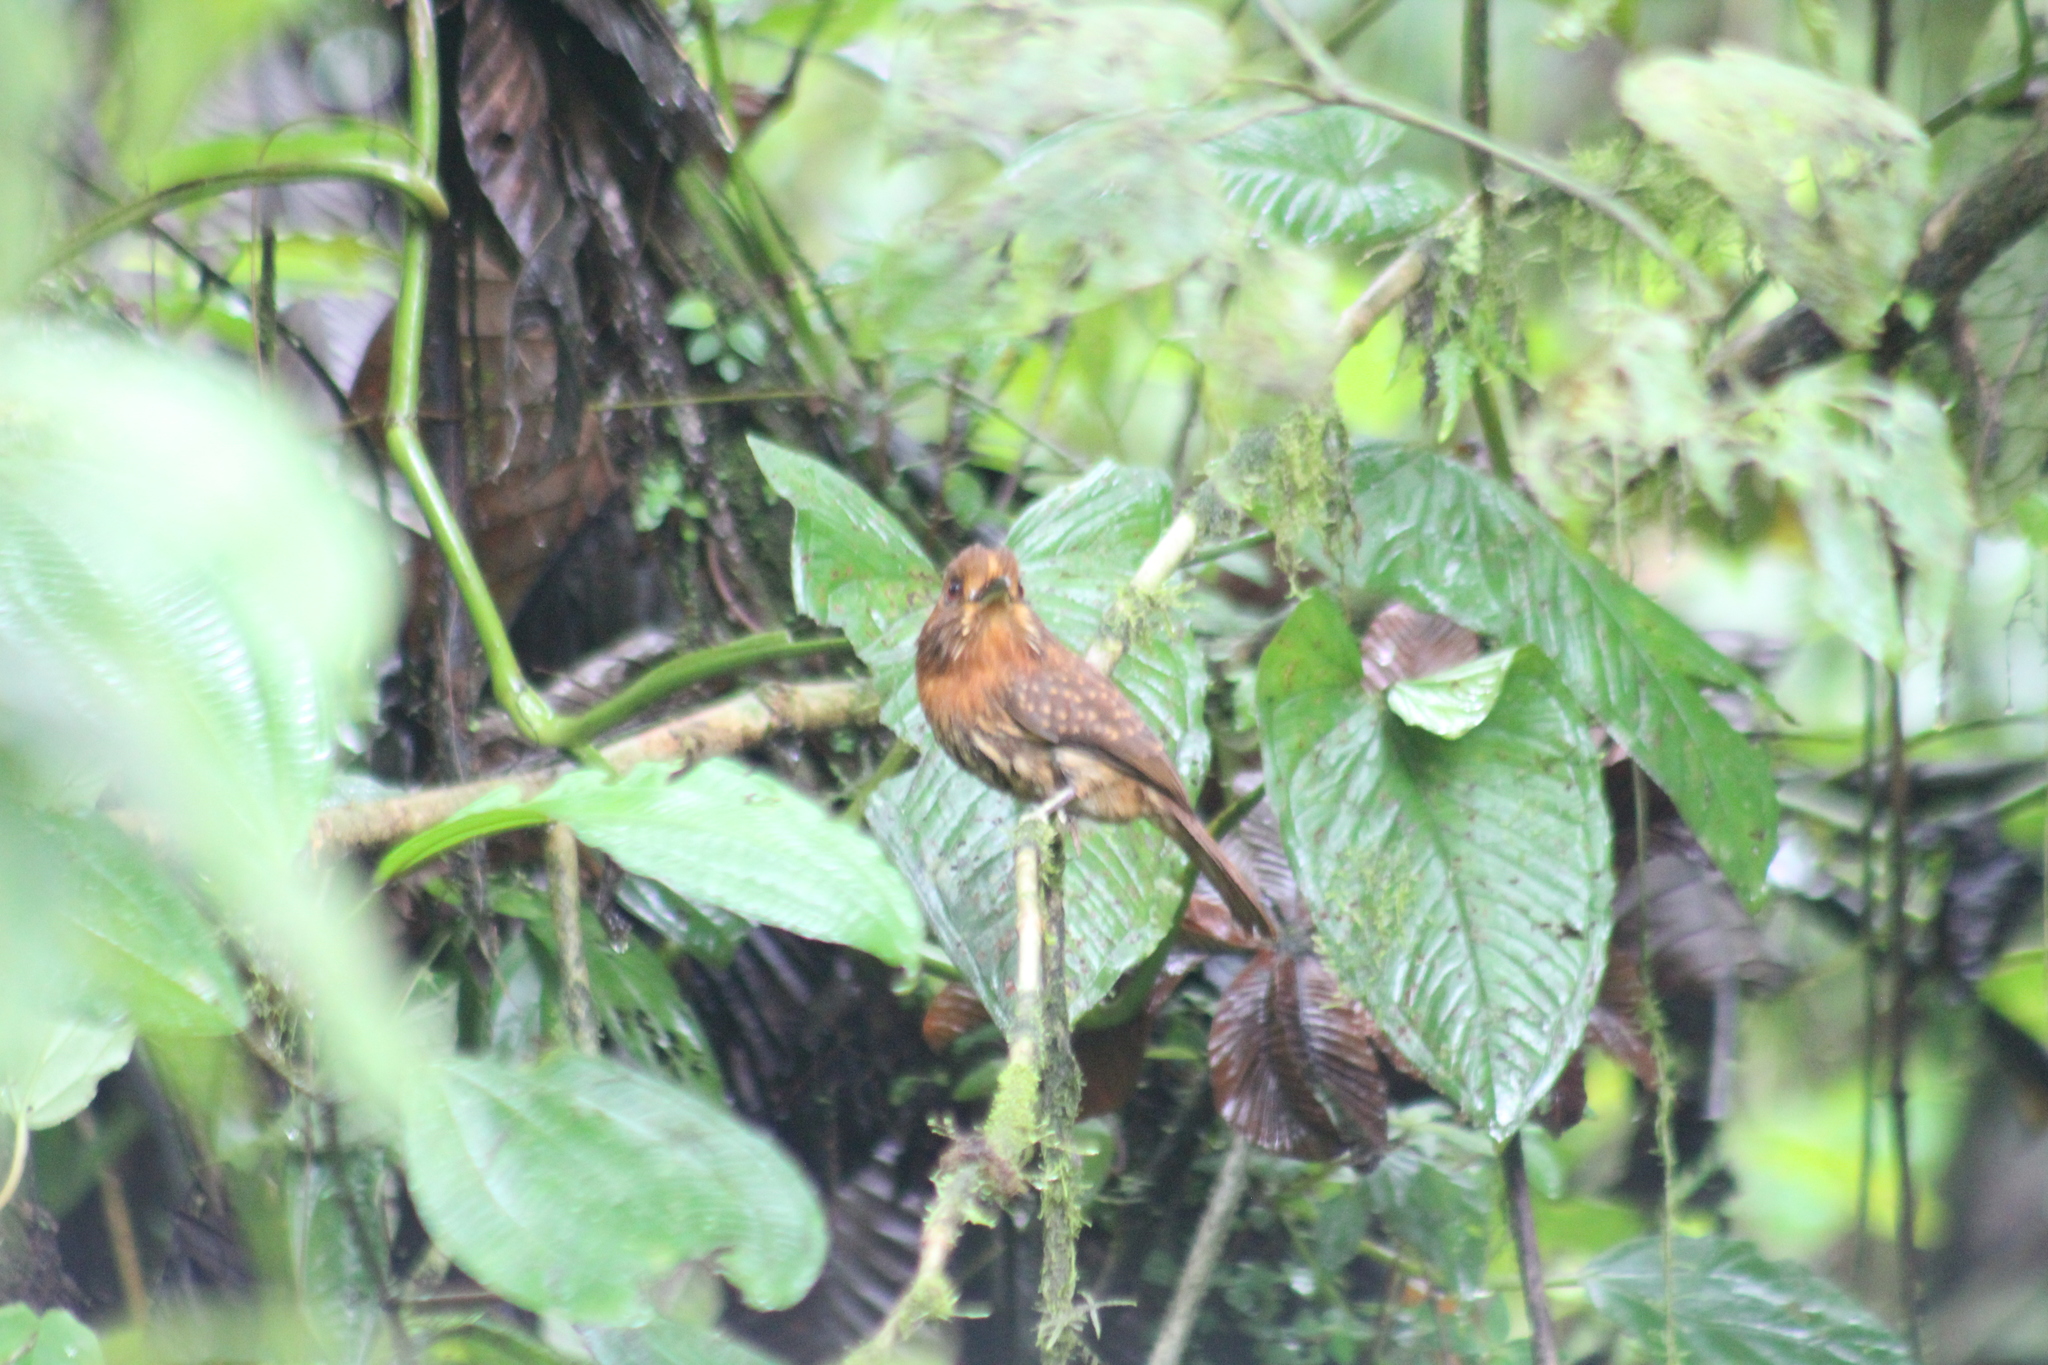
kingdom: Animalia
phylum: Chordata
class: Aves
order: Piciformes
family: Bucconidae
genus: Malacoptila
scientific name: Malacoptila panamensis
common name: White-whiskered puffbird
